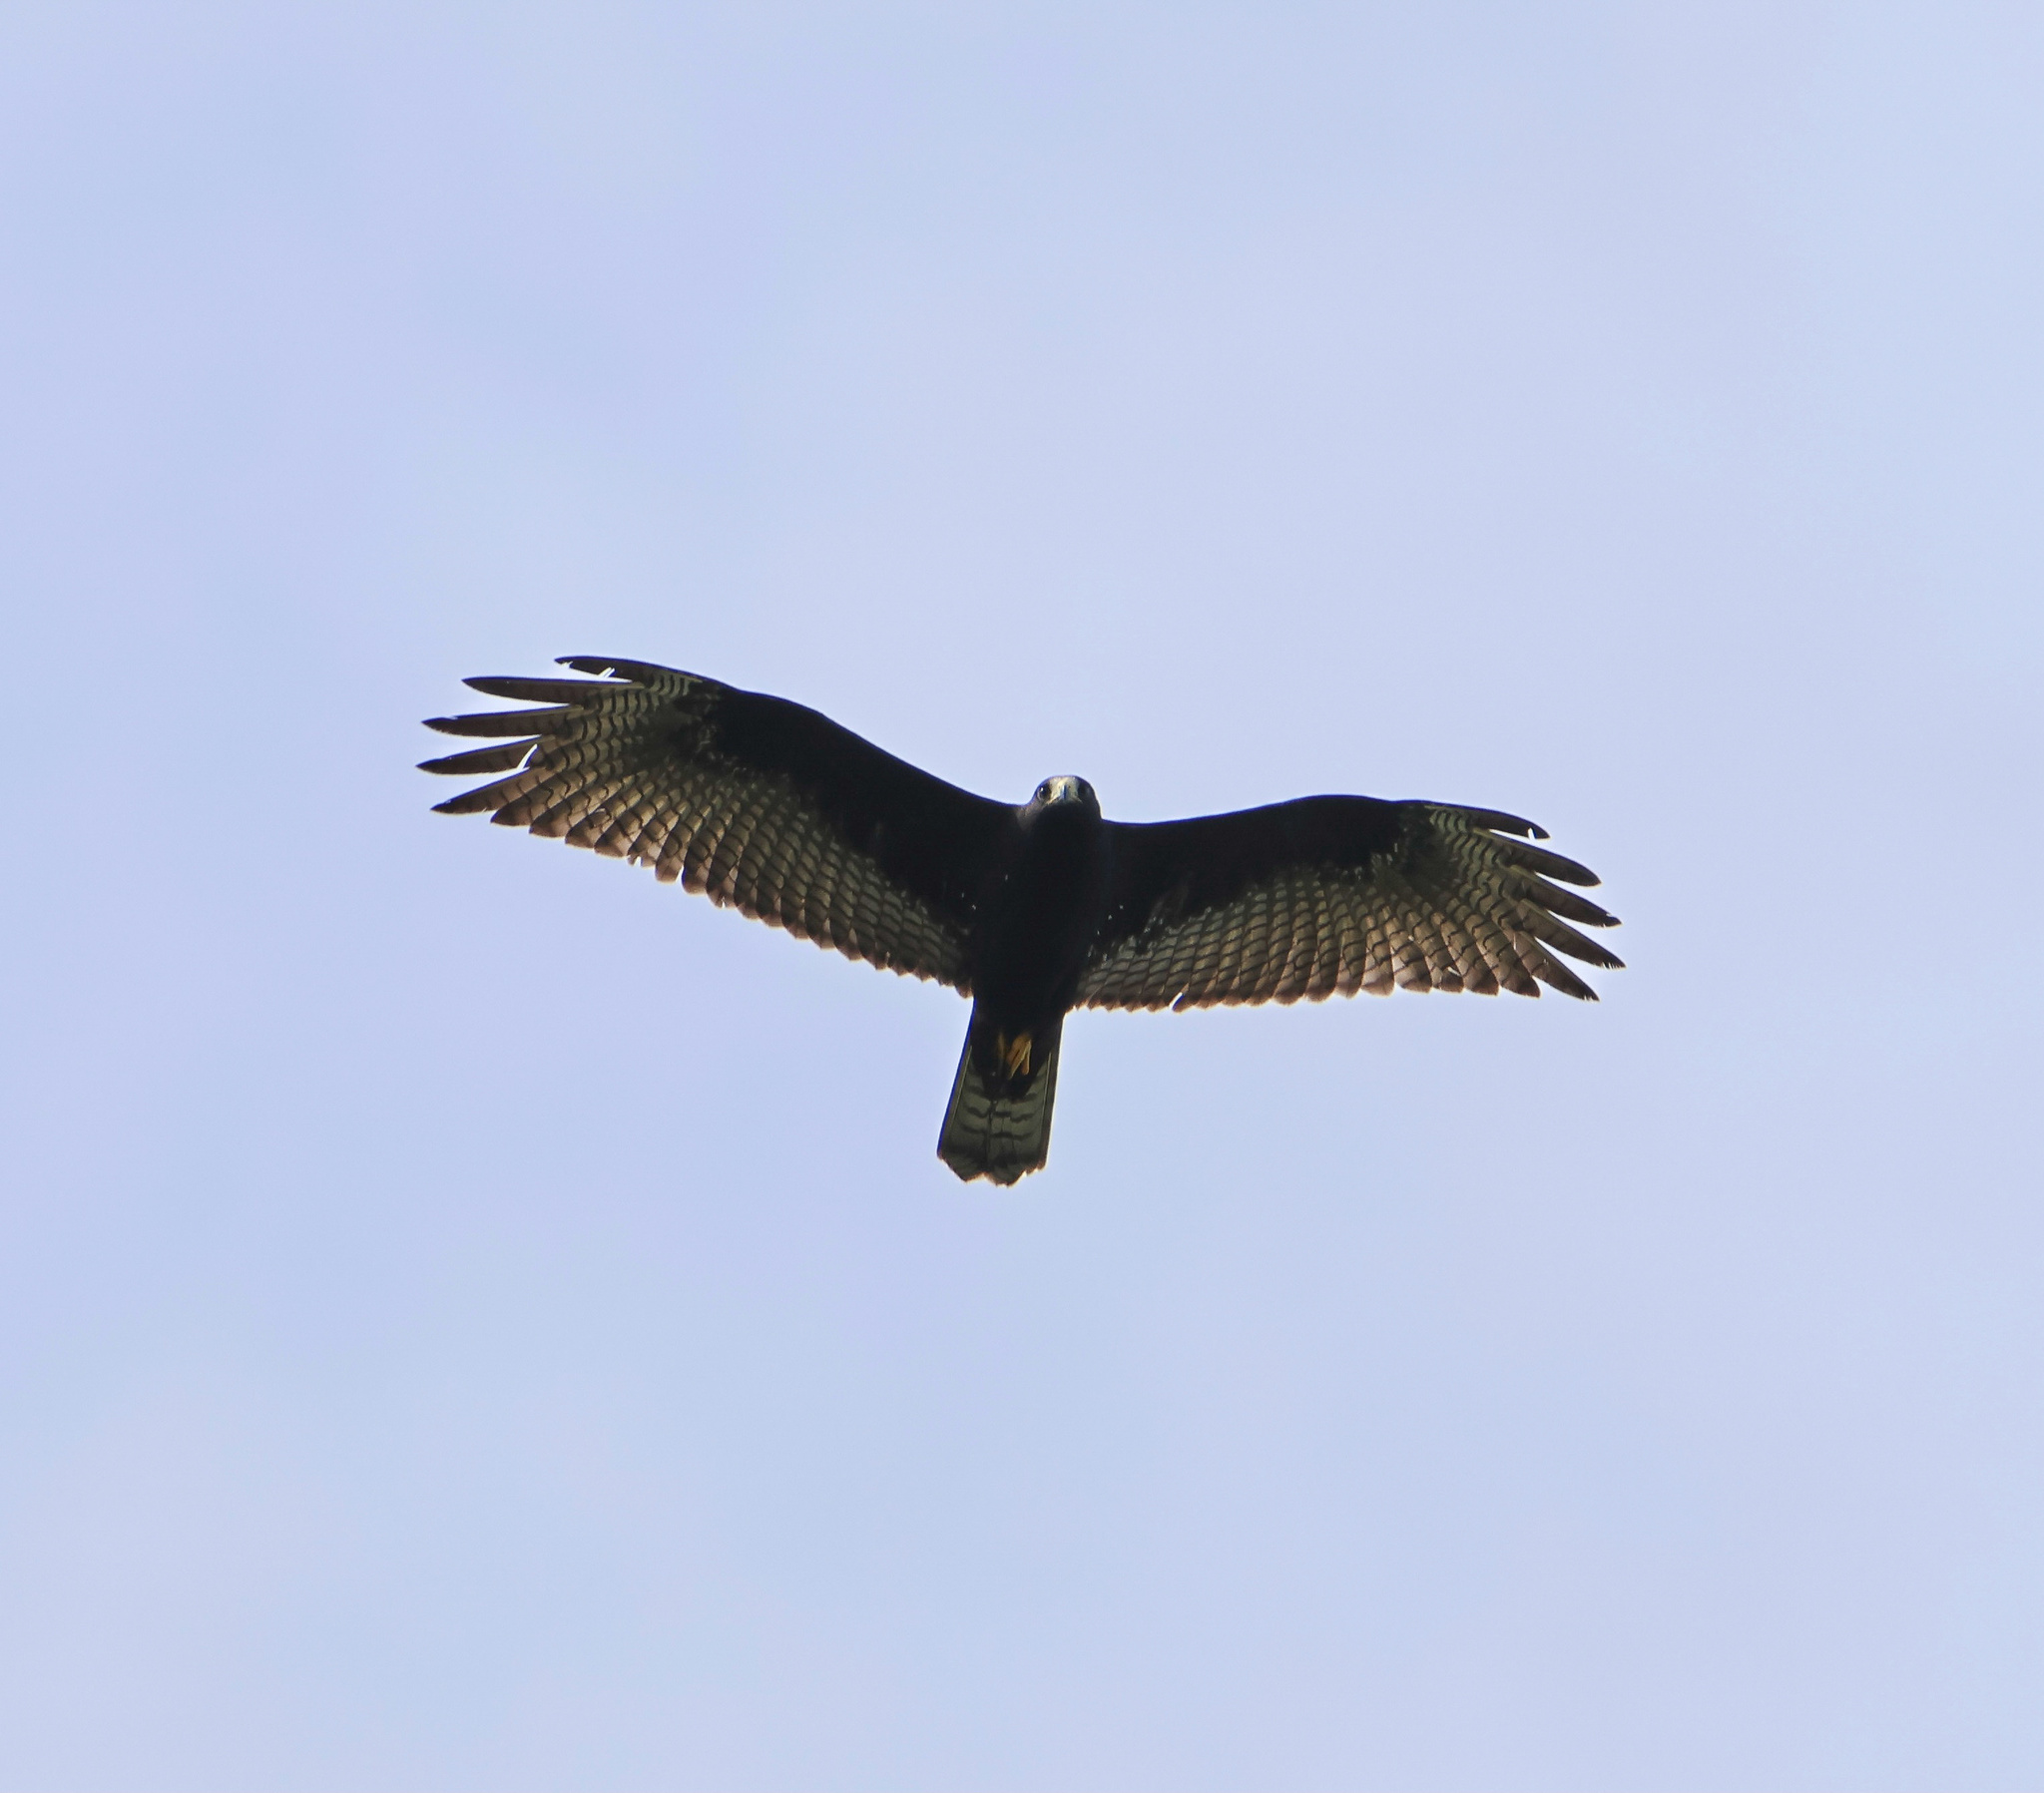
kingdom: Animalia
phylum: Chordata
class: Aves
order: Accipitriformes
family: Accipitridae
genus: Buteo
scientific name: Buteo albonotatus
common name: Zone-tailed hawk
